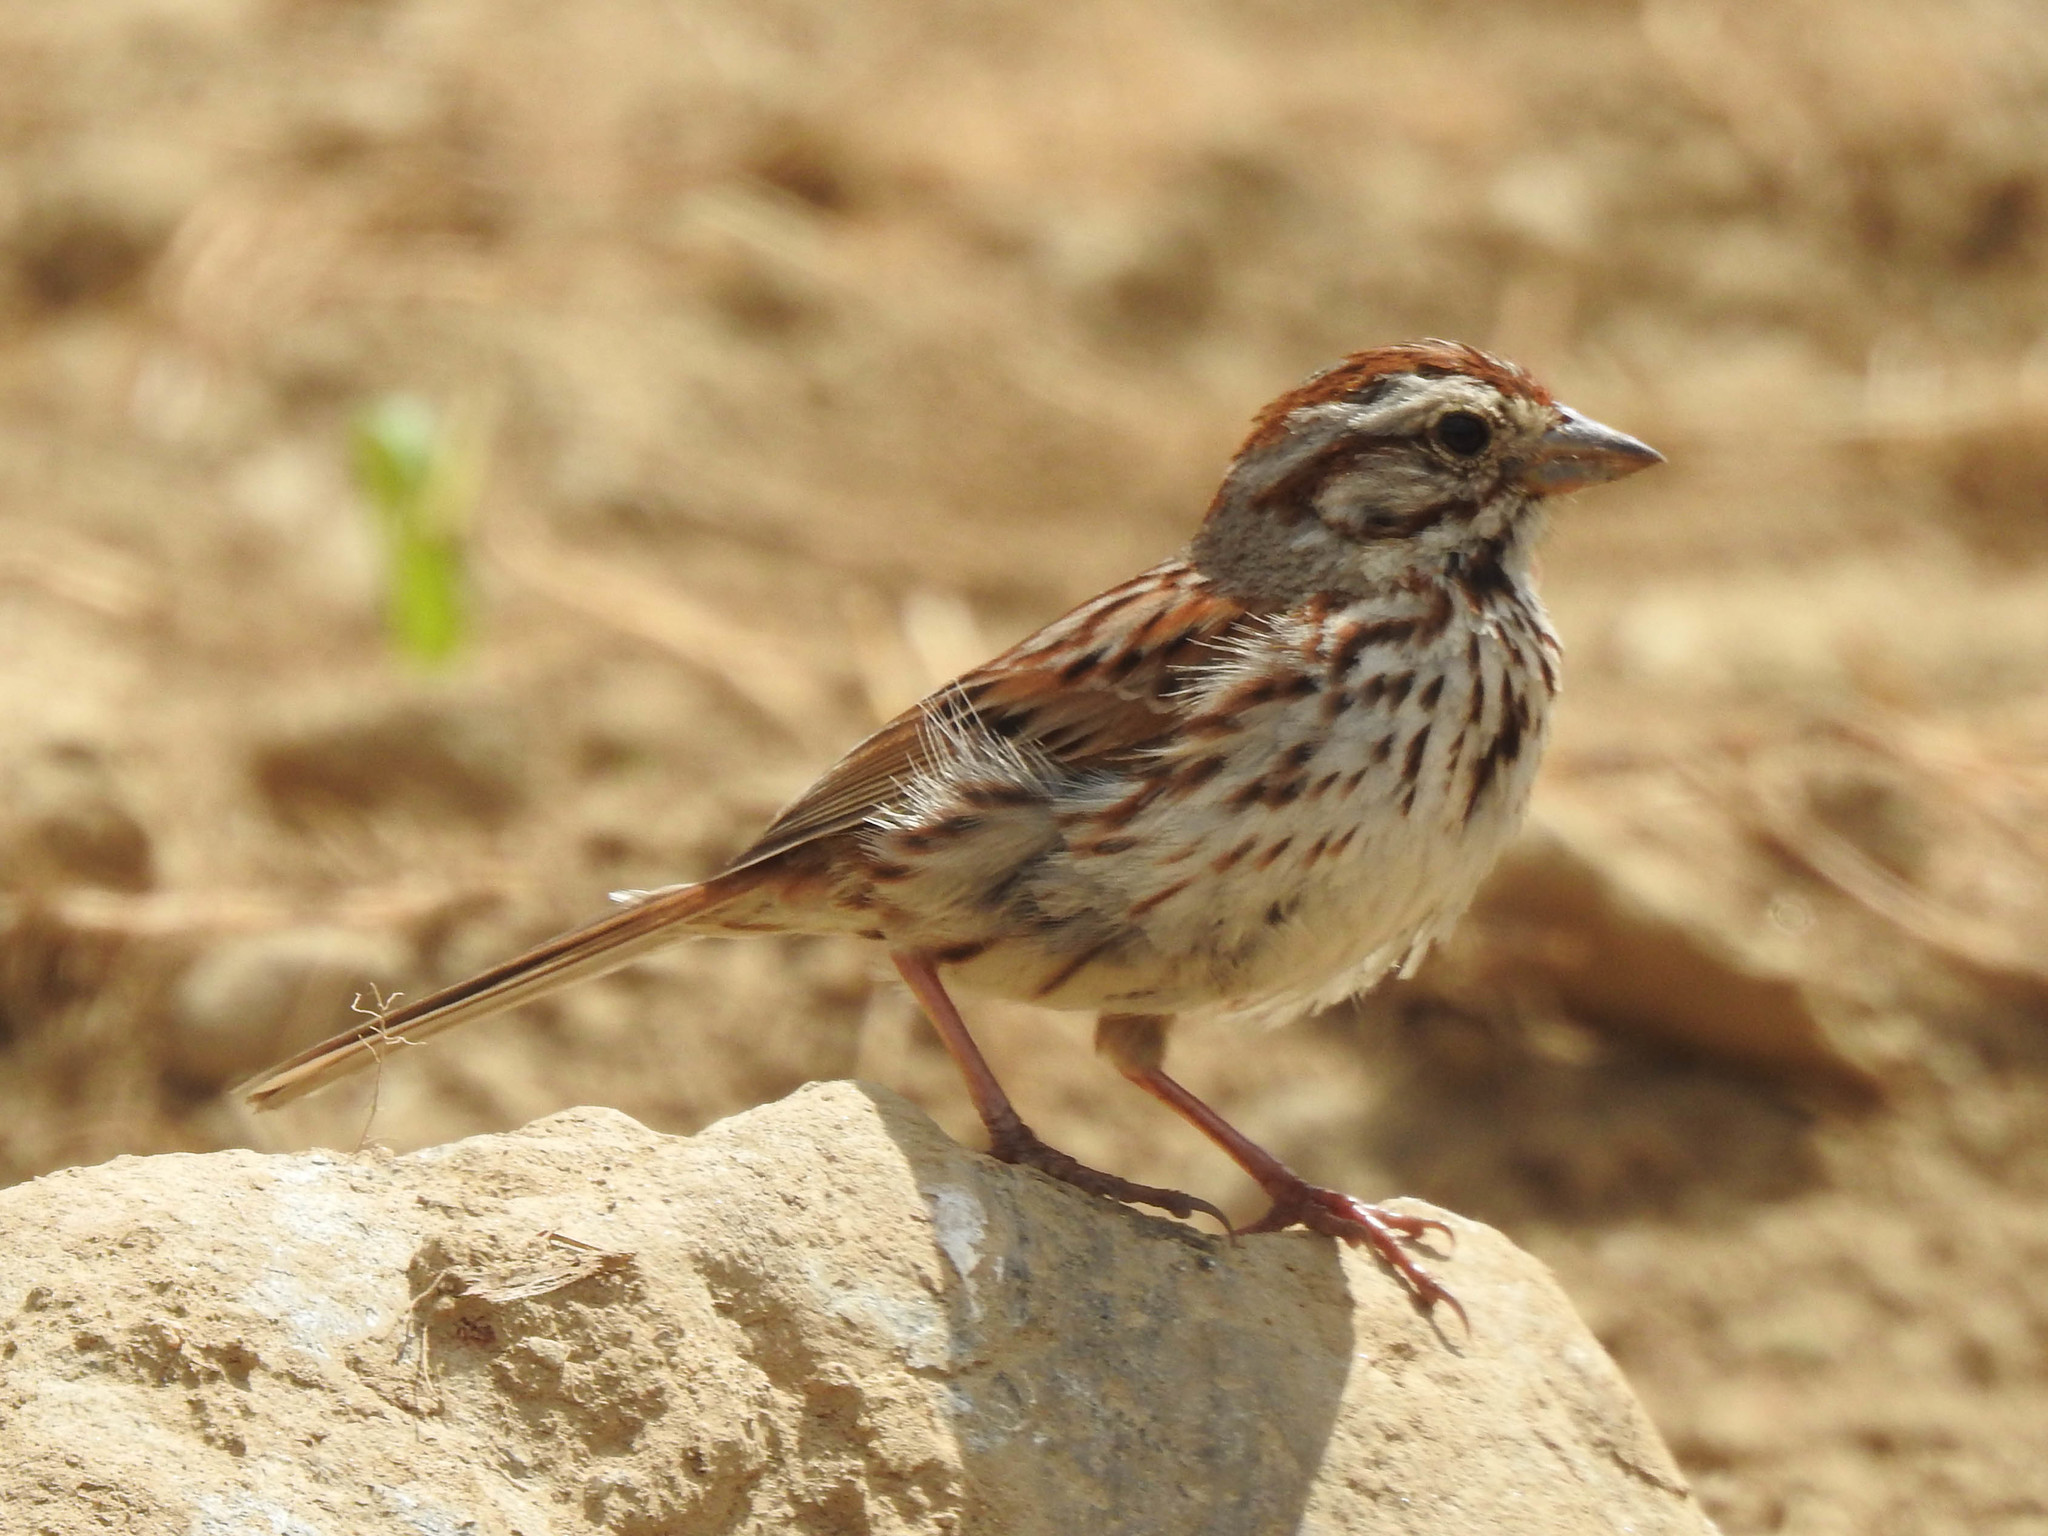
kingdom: Animalia
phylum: Chordata
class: Aves
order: Passeriformes
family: Passerellidae
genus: Melospiza
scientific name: Melospiza melodia
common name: Song sparrow
